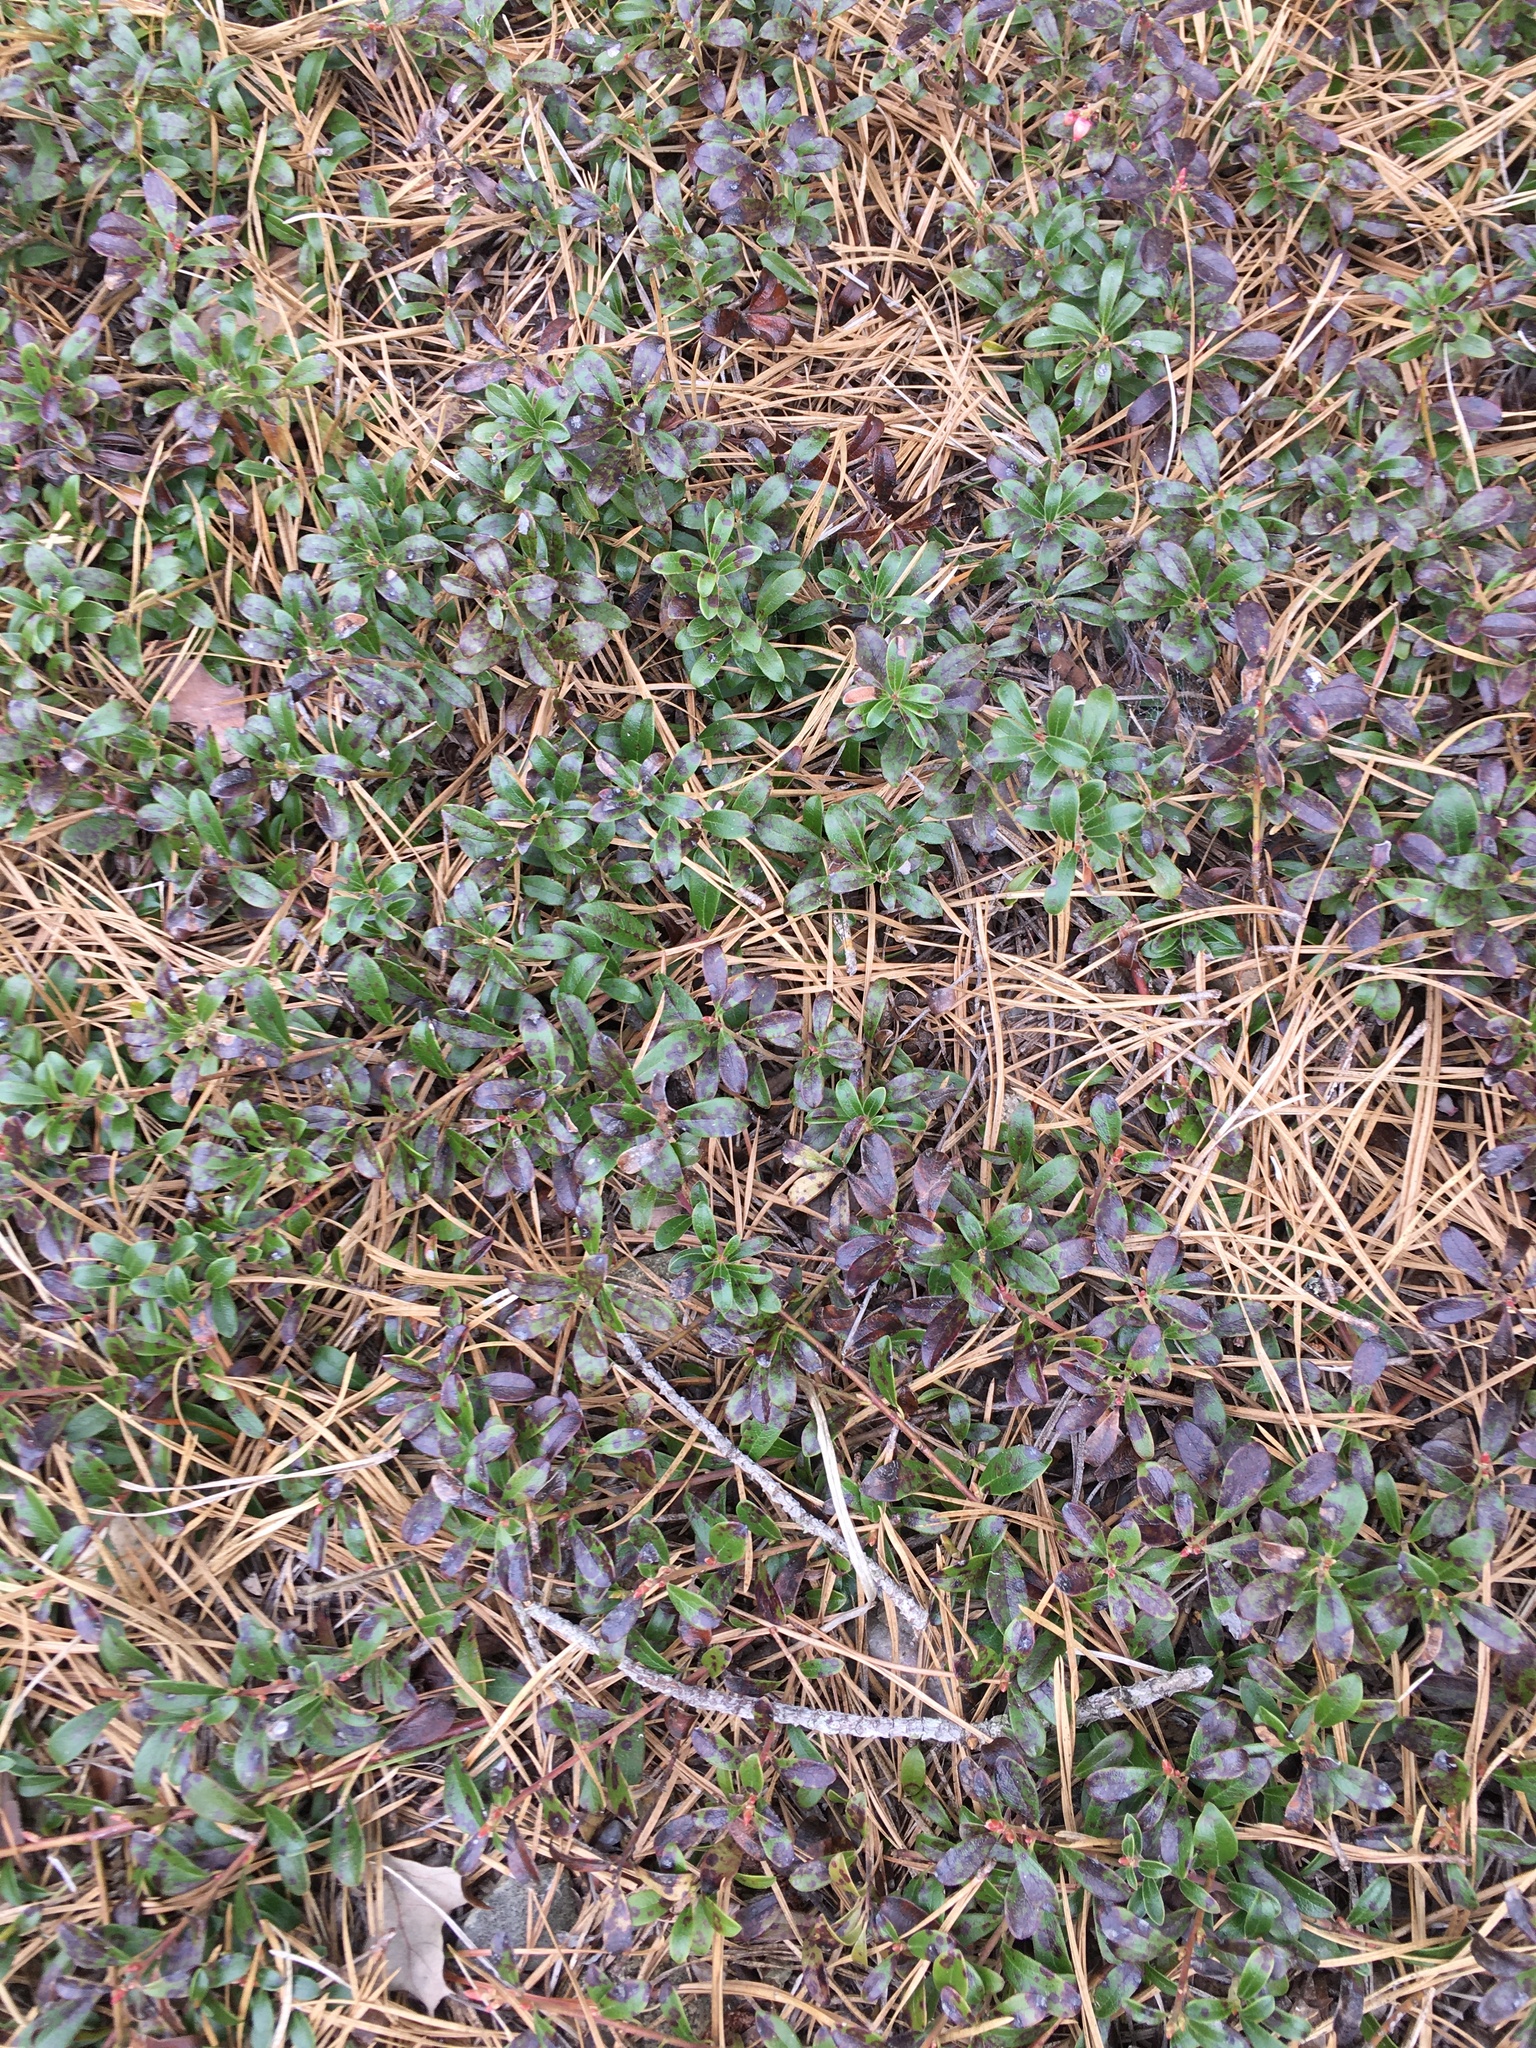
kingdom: Plantae
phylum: Tracheophyta
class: Magnoliopsida
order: Ericales
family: Ericaceae
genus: Arctostaphylos
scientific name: Arctostaphylos uva-ursi
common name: Bearberry
